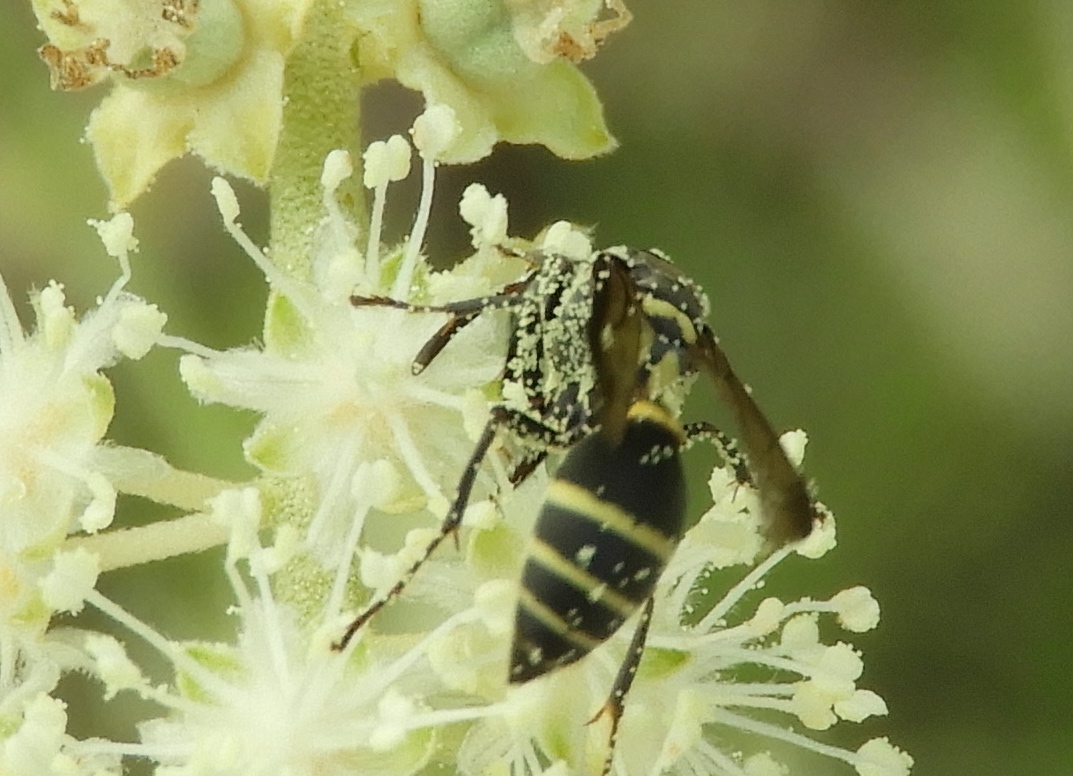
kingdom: Animalia
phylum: Arthropoda
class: Insecta
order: Hymenoptera
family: Vespidae
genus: Myrapetra
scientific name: Myrapetra
